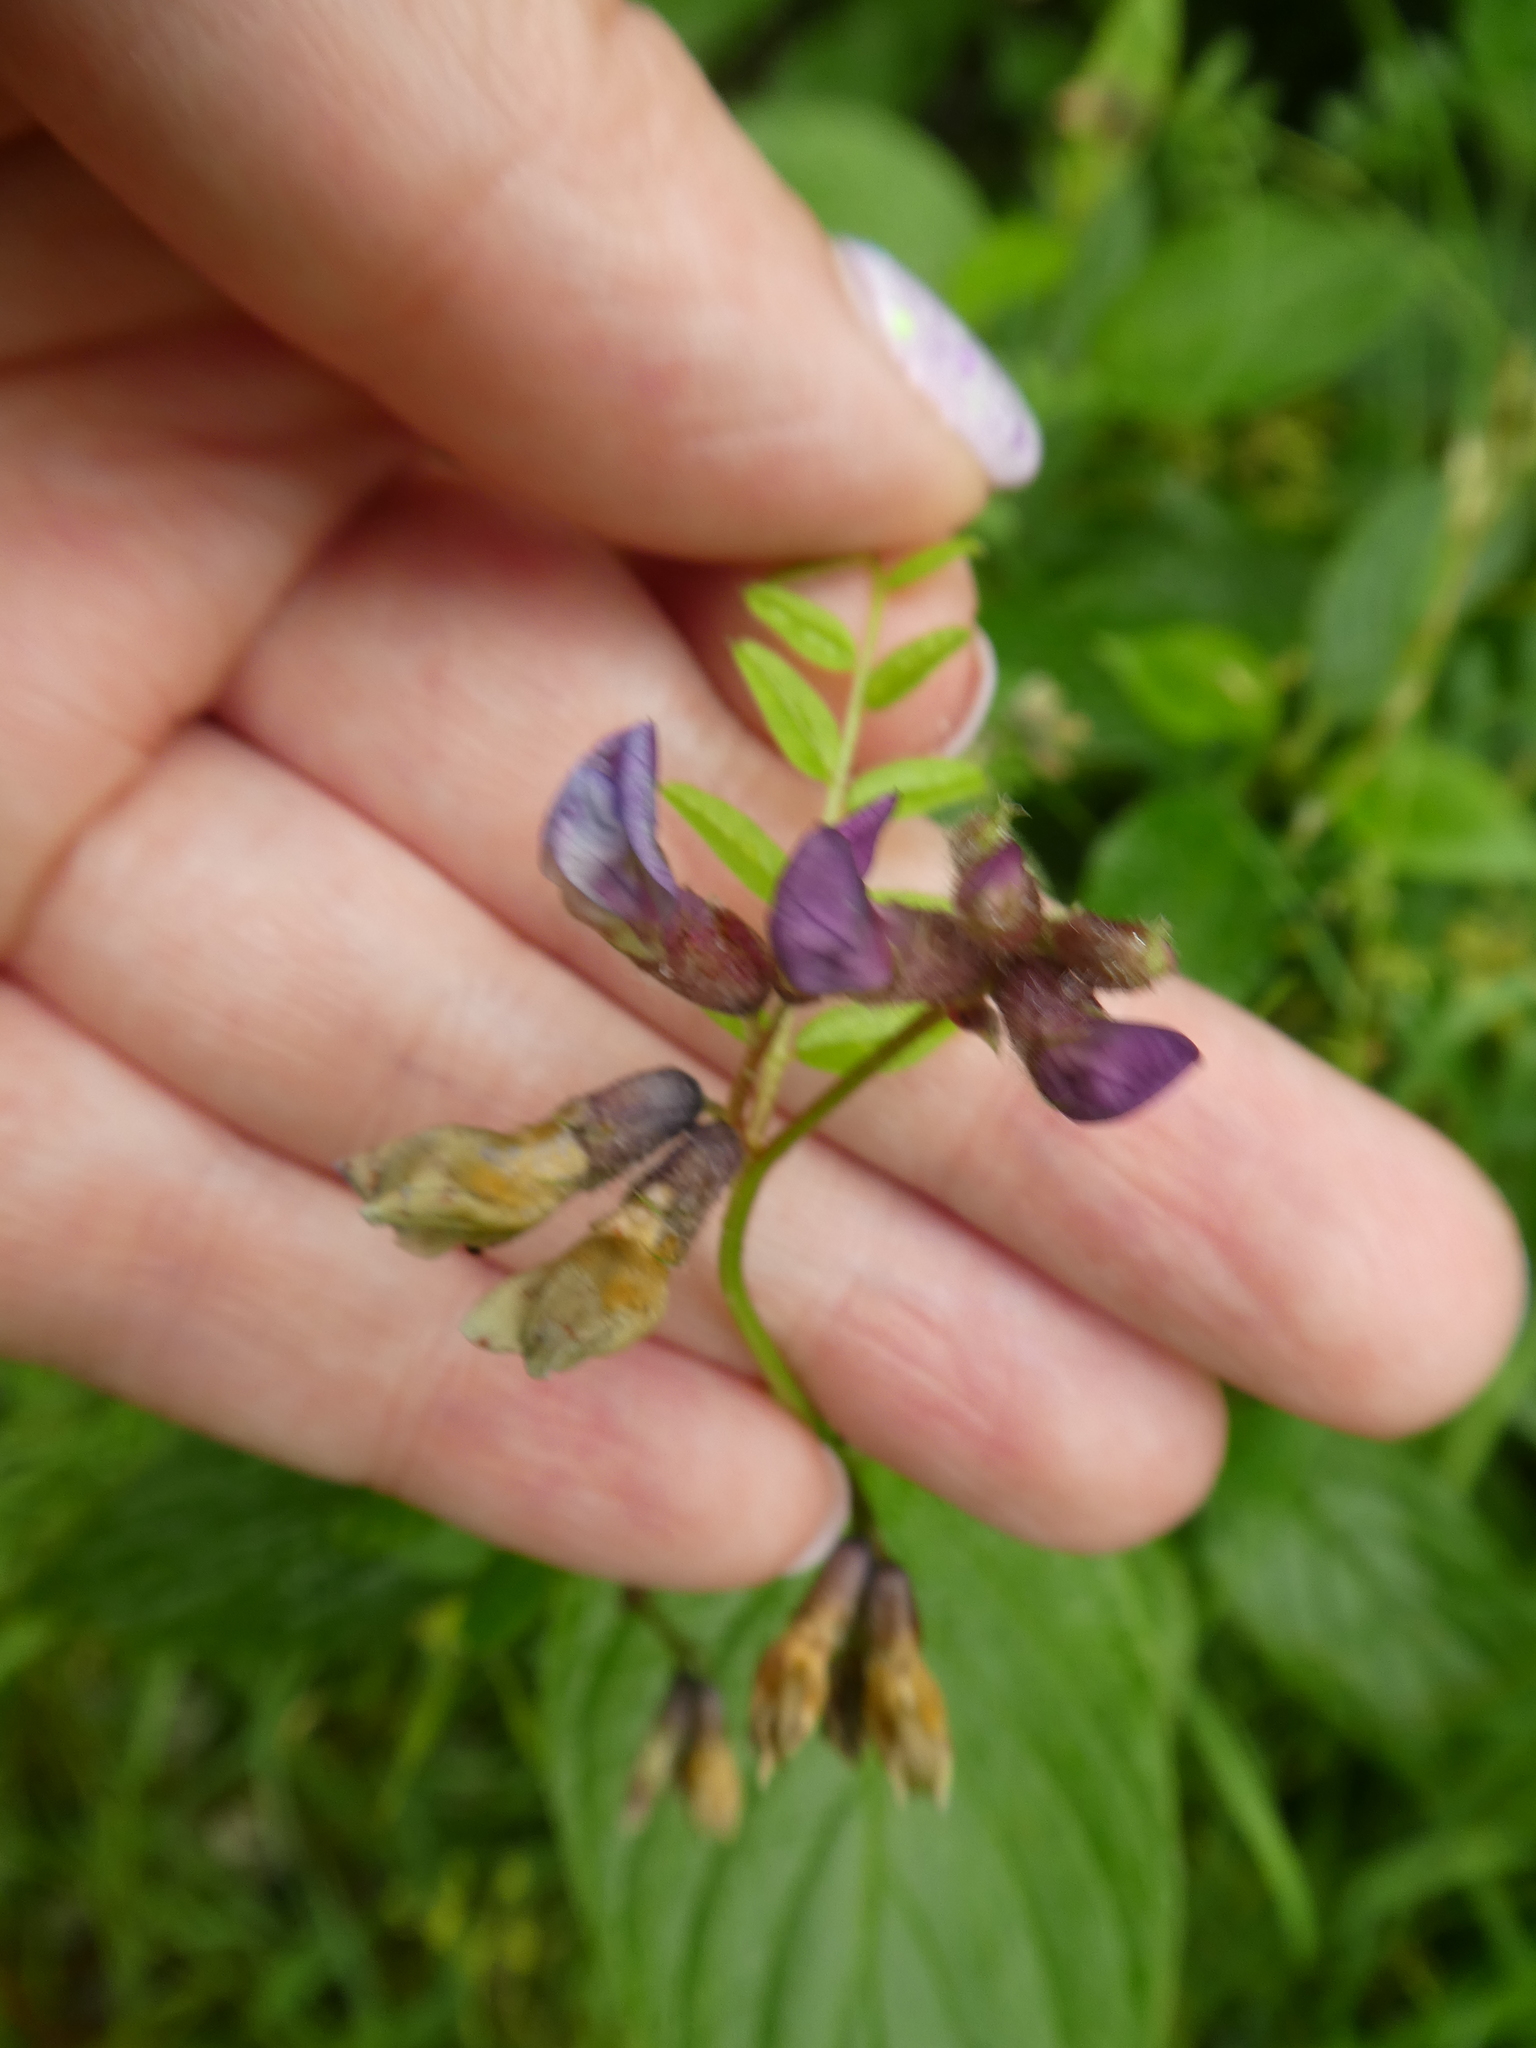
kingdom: Plantae
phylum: Tracheophyta
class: Magnoliopsida
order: Fabales
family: Fabaceae
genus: Vicia
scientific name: Vicia sepium
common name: Bush vetch
